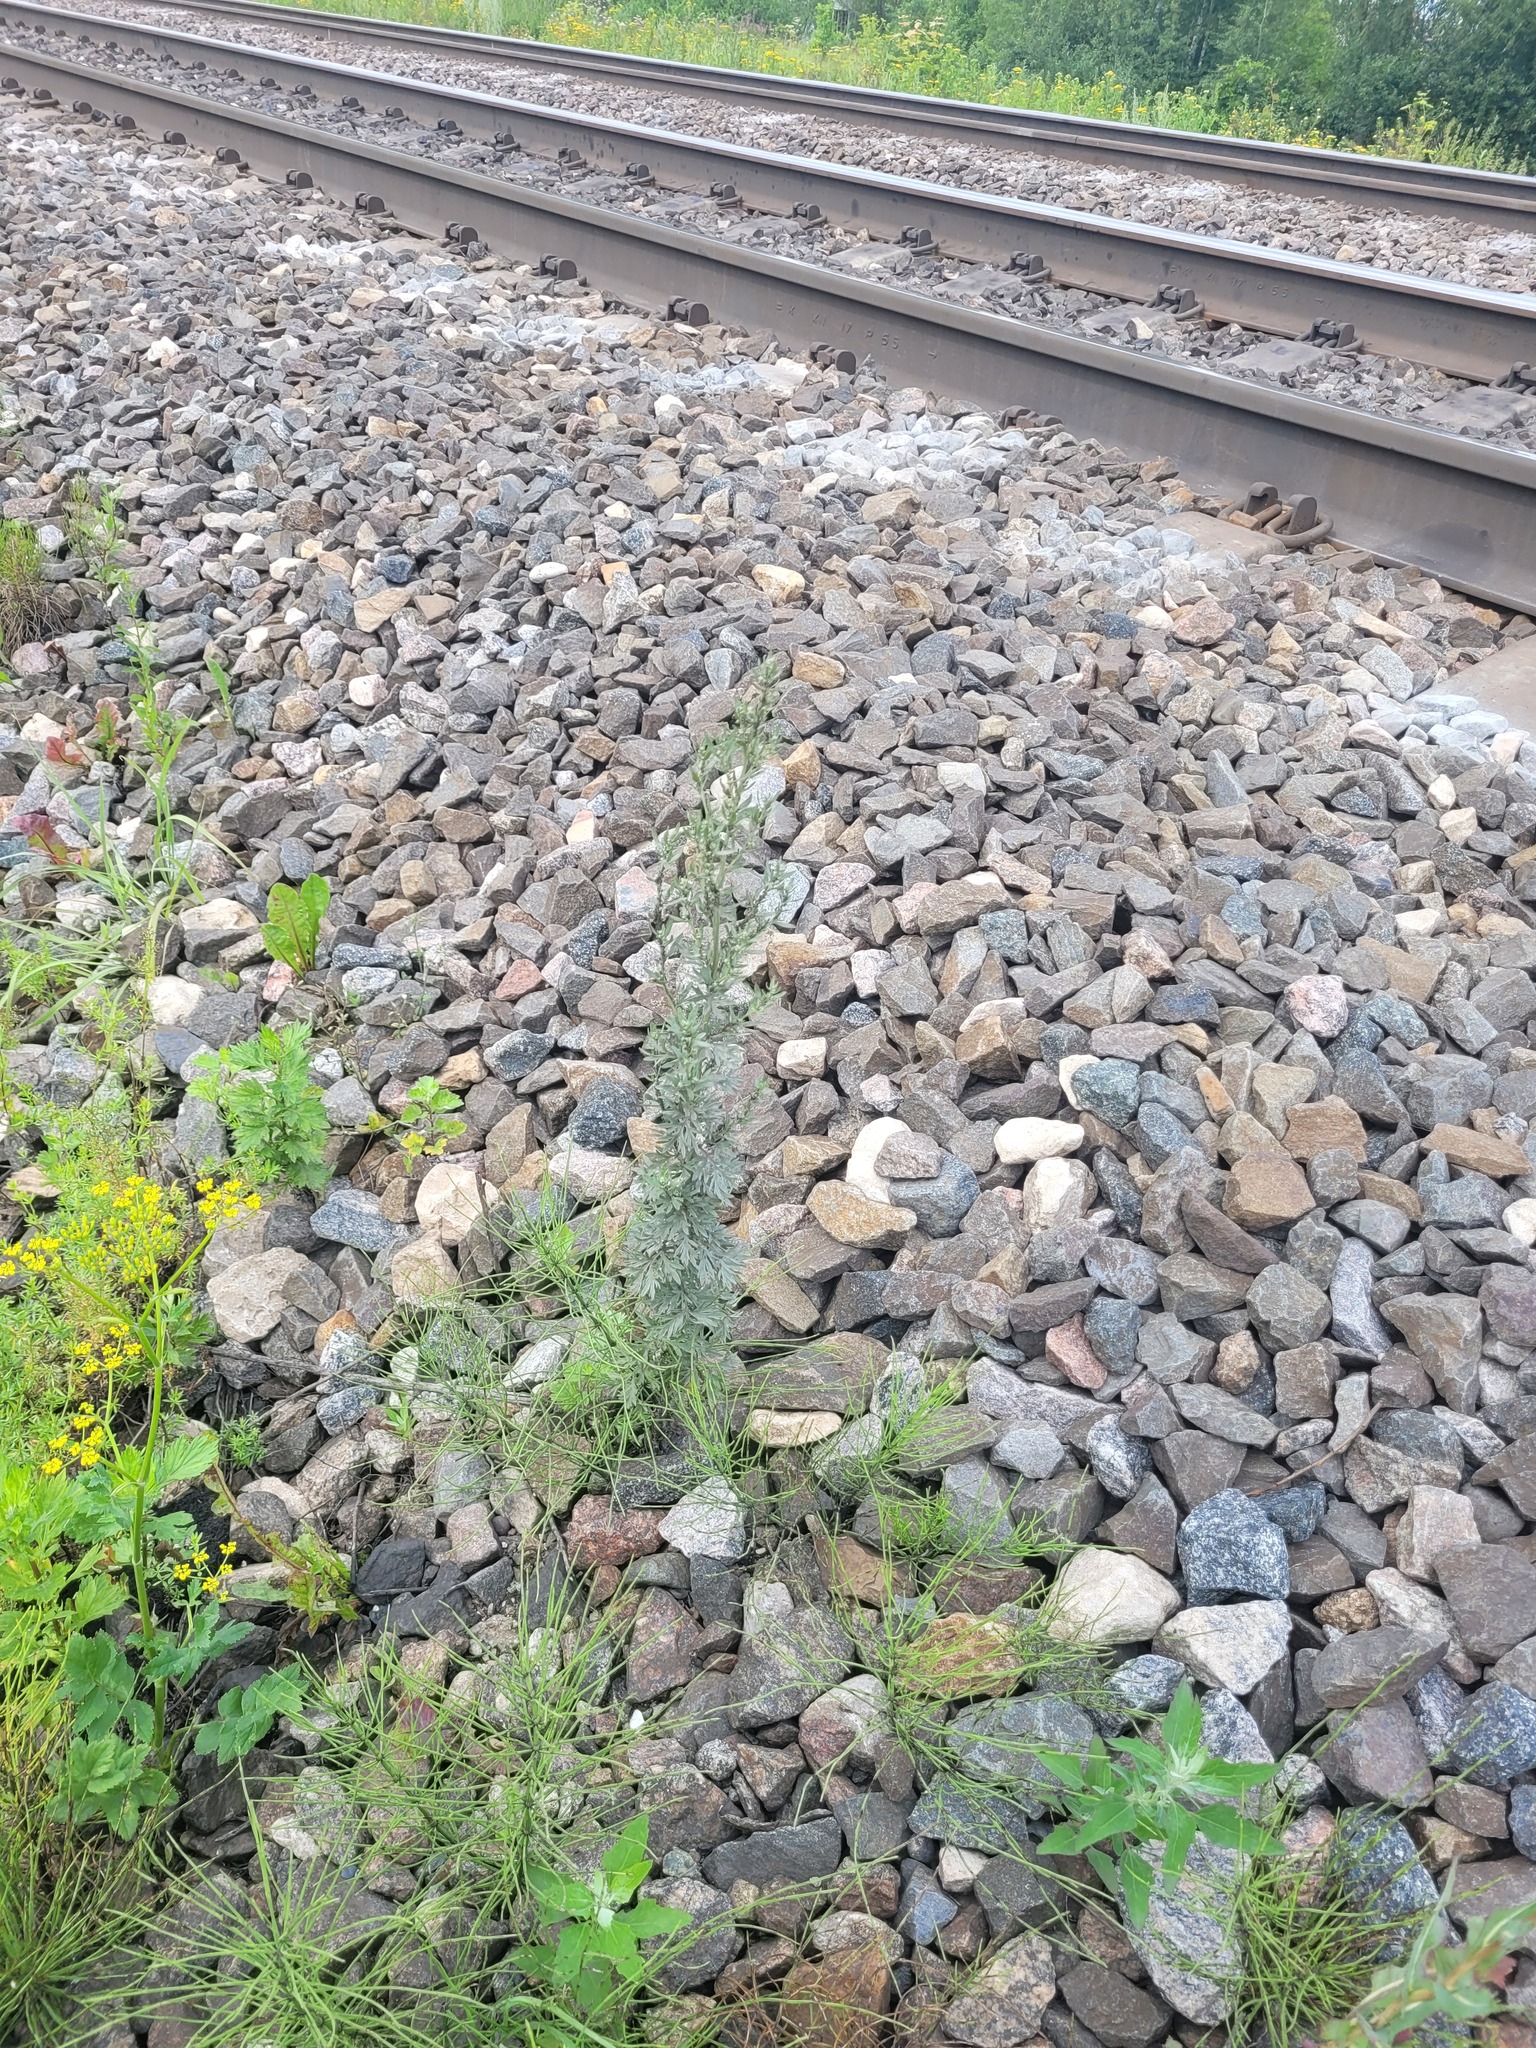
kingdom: Plantae
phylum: Tracheophyta
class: Magnoliopsida
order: Asterales
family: Asteraceae
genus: Artemisia
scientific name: Artemisia absinthium
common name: Wormwood
